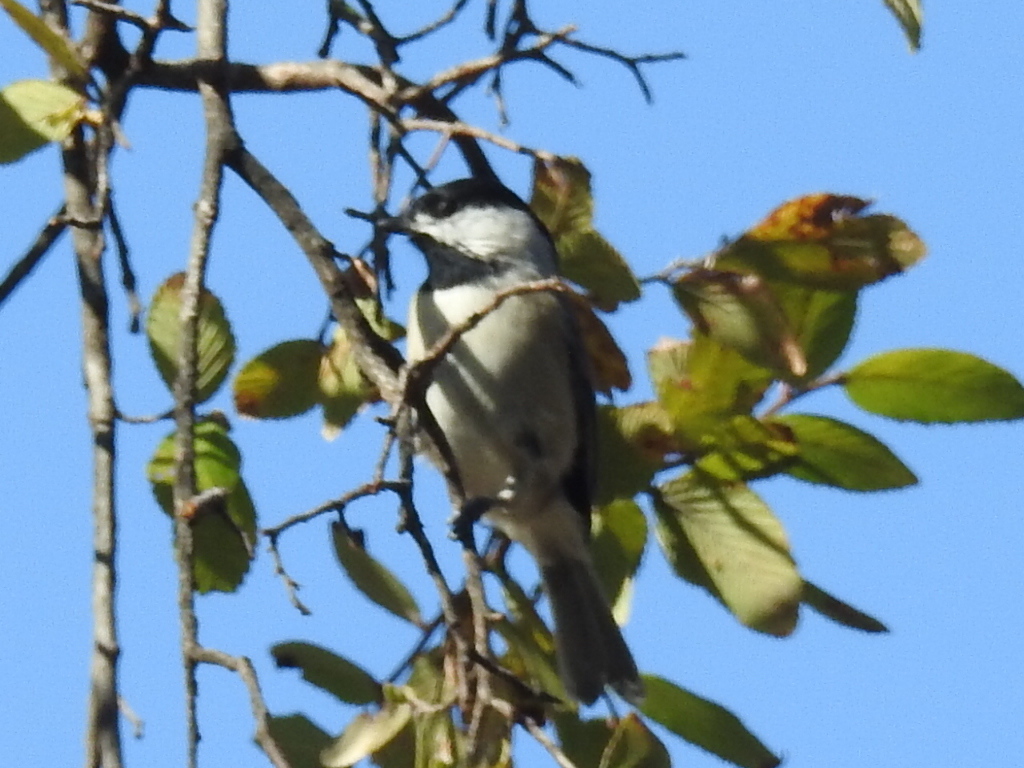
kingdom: Animalia
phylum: Chordata
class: Aves
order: Passeriformes
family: Paridae
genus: Poecile
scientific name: Poecile carolinensis
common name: Carolina chickadee
